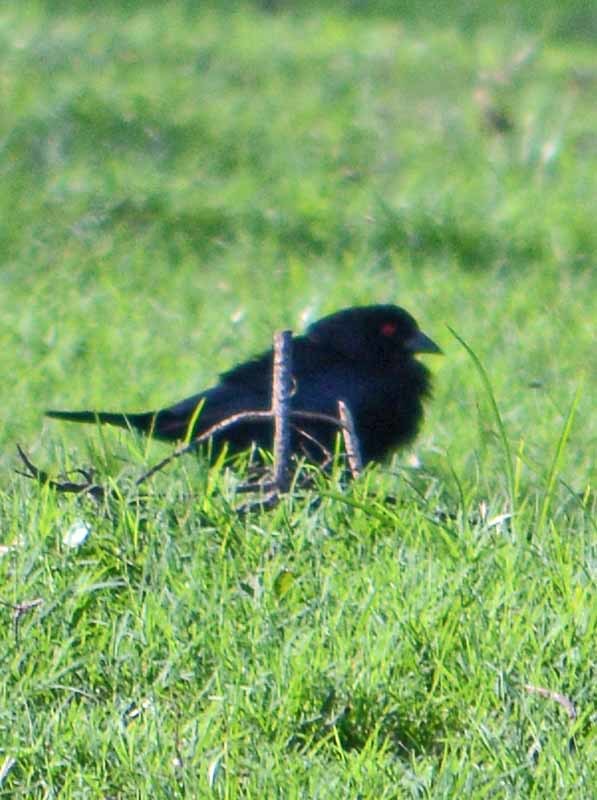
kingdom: Animalia
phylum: Chordata
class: Aves
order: Passeriformes
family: Icteridae
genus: Molothrus
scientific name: Molothrus aeneus
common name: Bronzed cowbird
